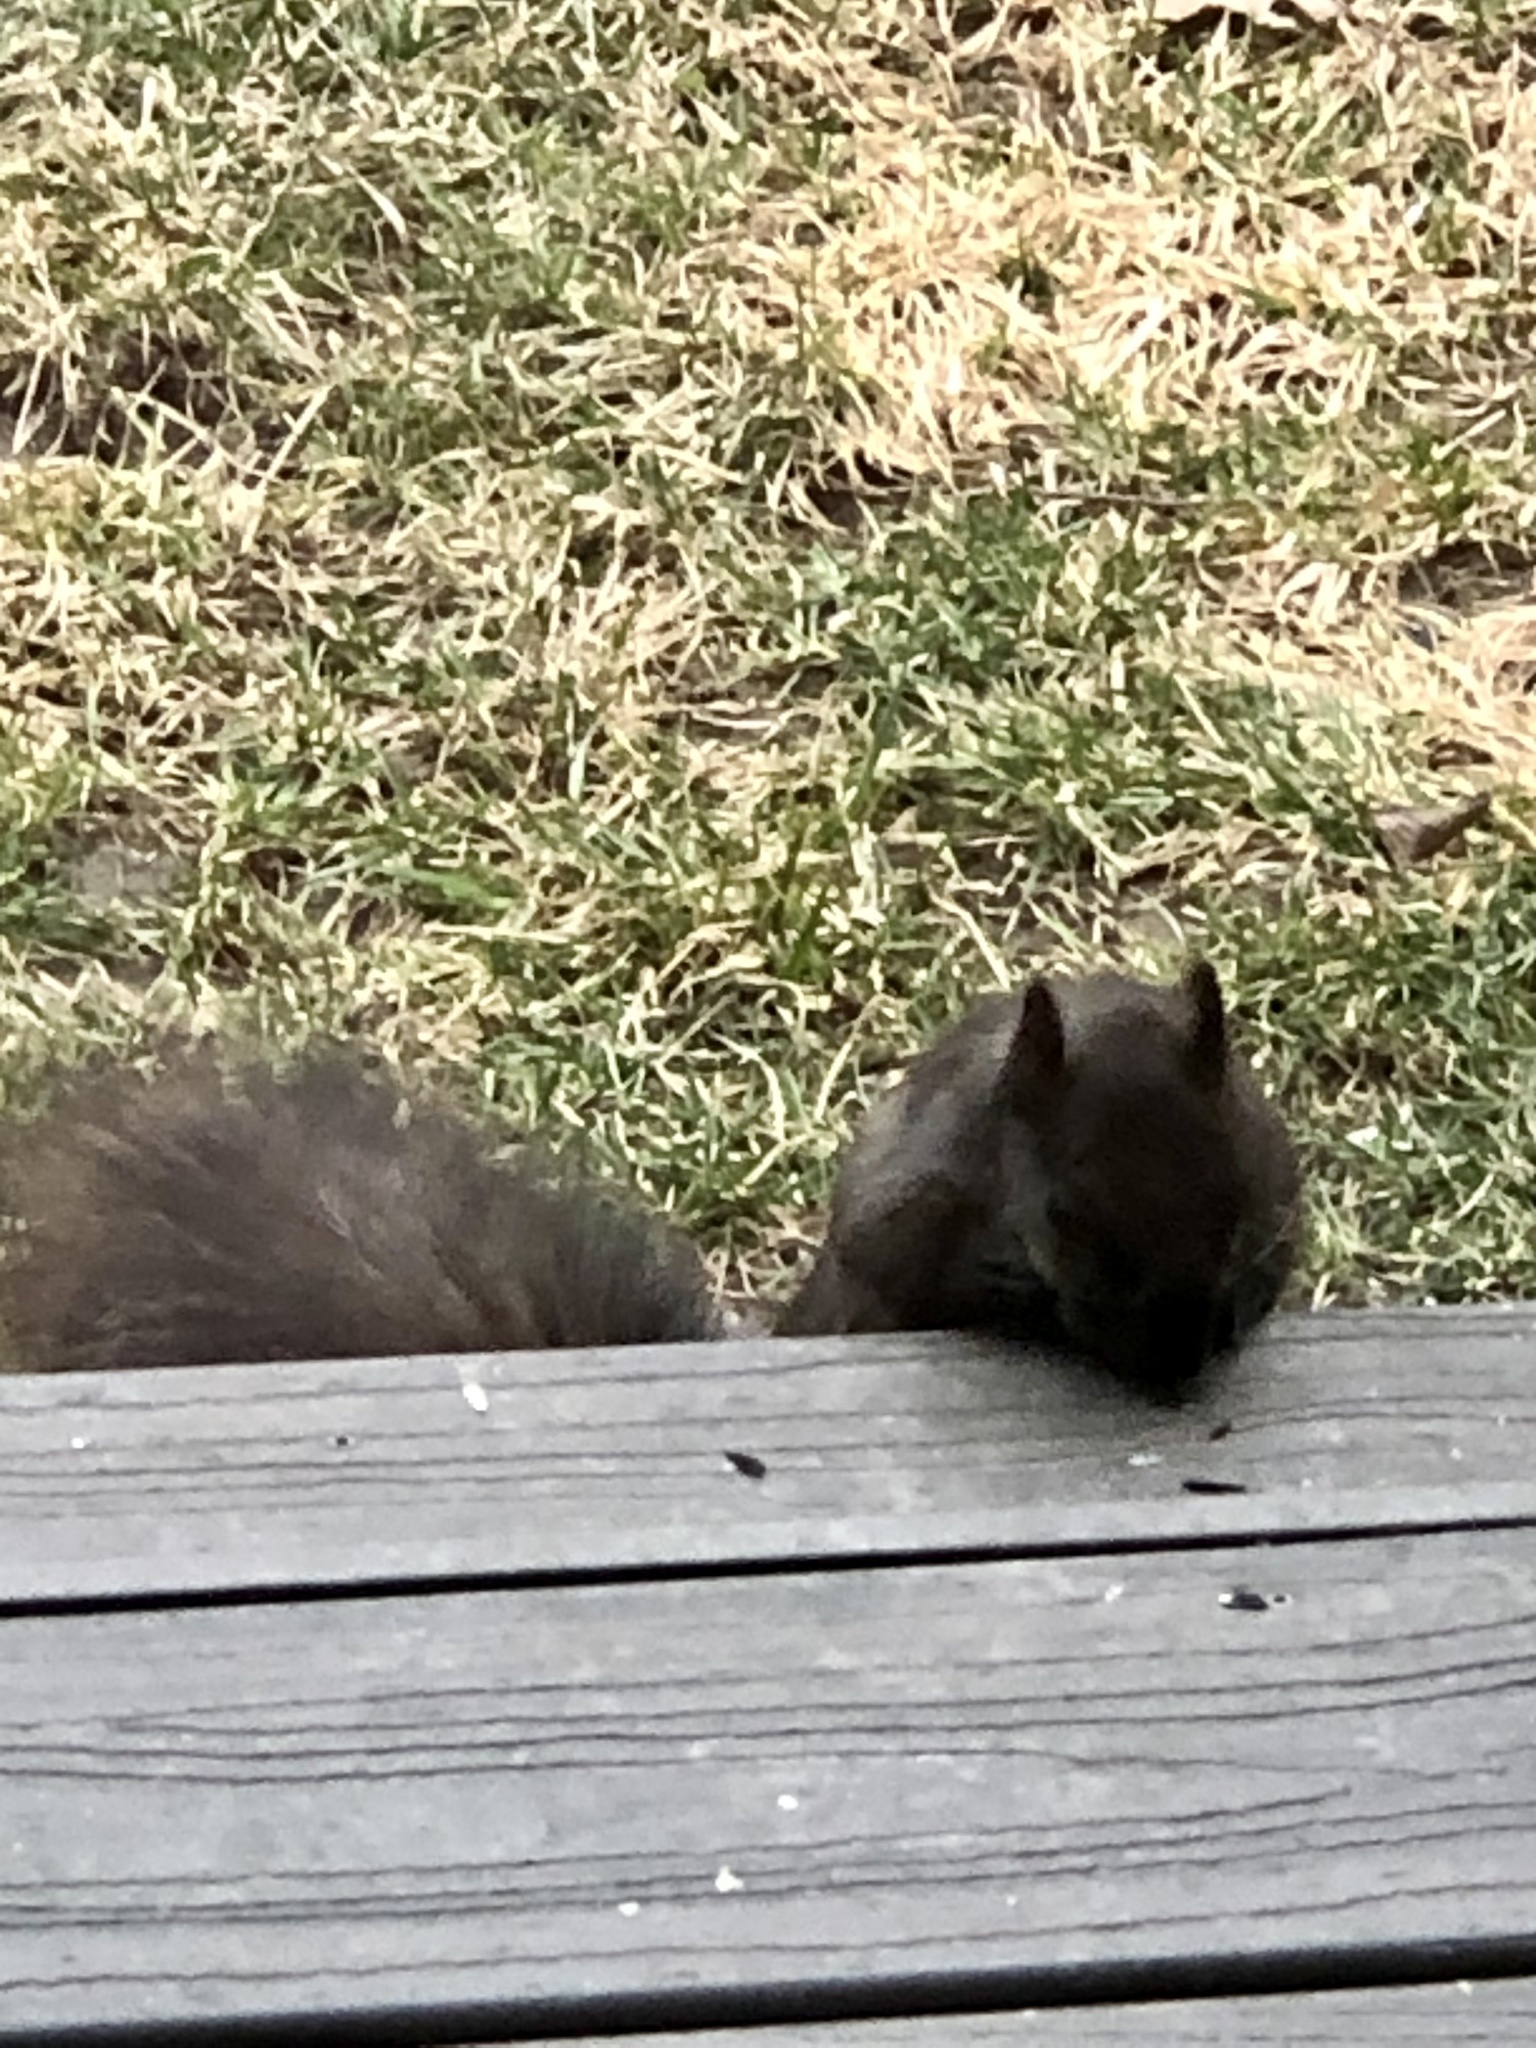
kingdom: Animalia
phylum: Chordata
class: Mammalia
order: Rodentia
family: Sciuridae
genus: Sciurus
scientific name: Sciurus carolinensis
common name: Eastern gray squirrel
